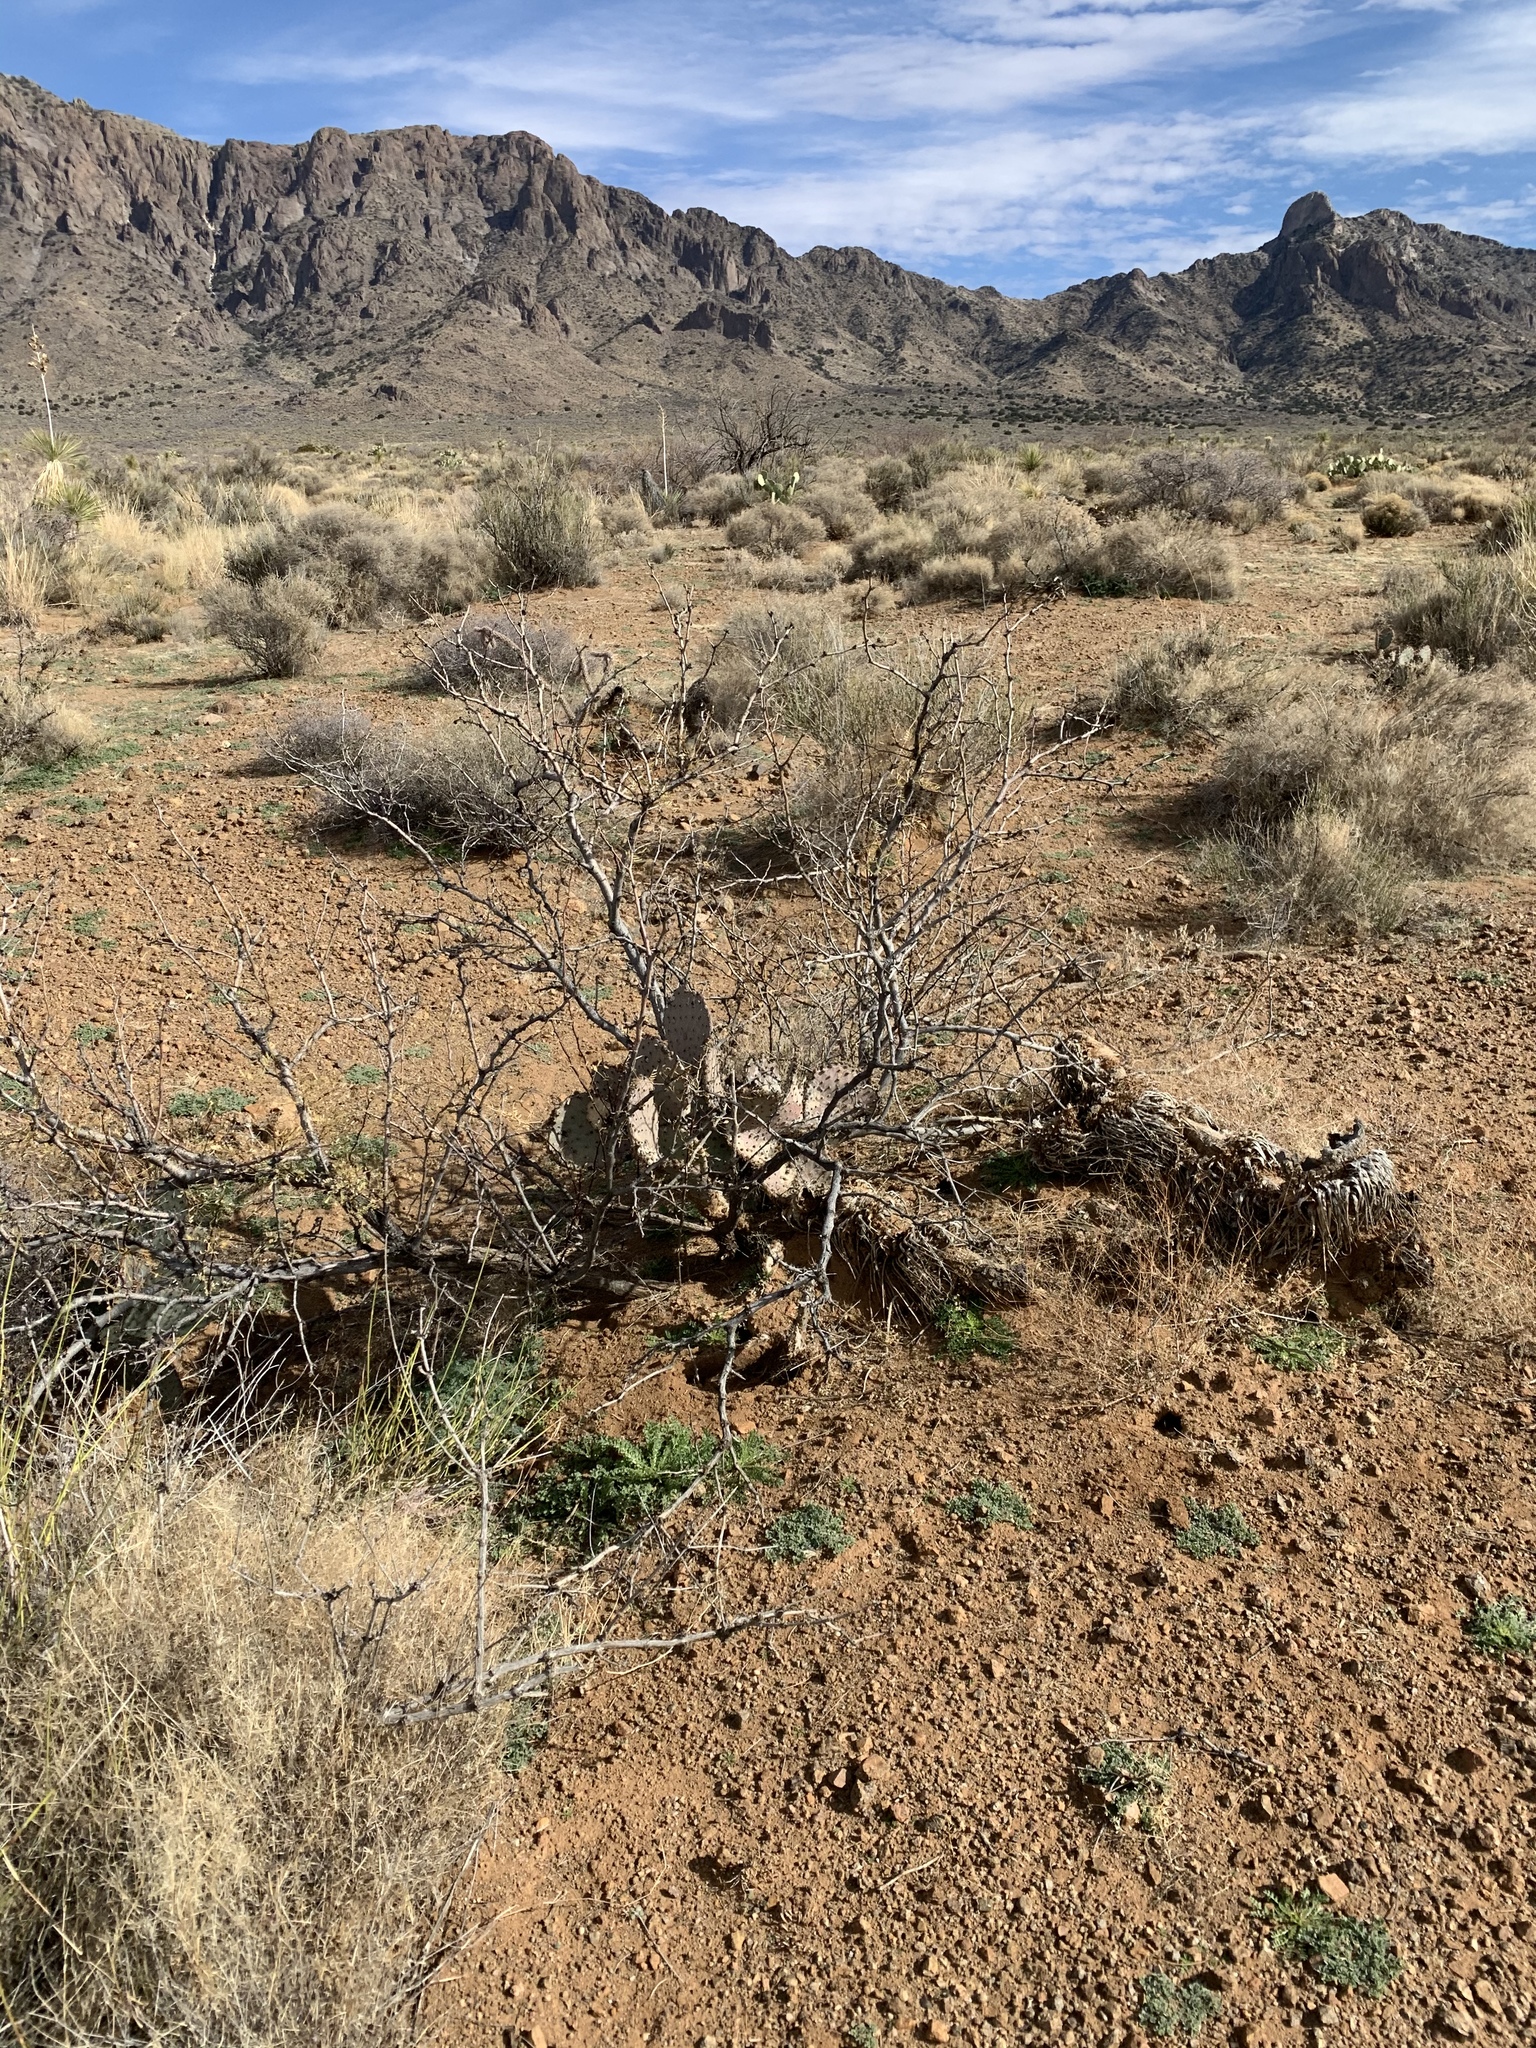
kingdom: Plantae
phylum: Tracheophyta
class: Magnoliopsida
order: Fabales
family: Fabaceae
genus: Prosopis
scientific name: Prosopis glandulosa
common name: Honey mesquite
